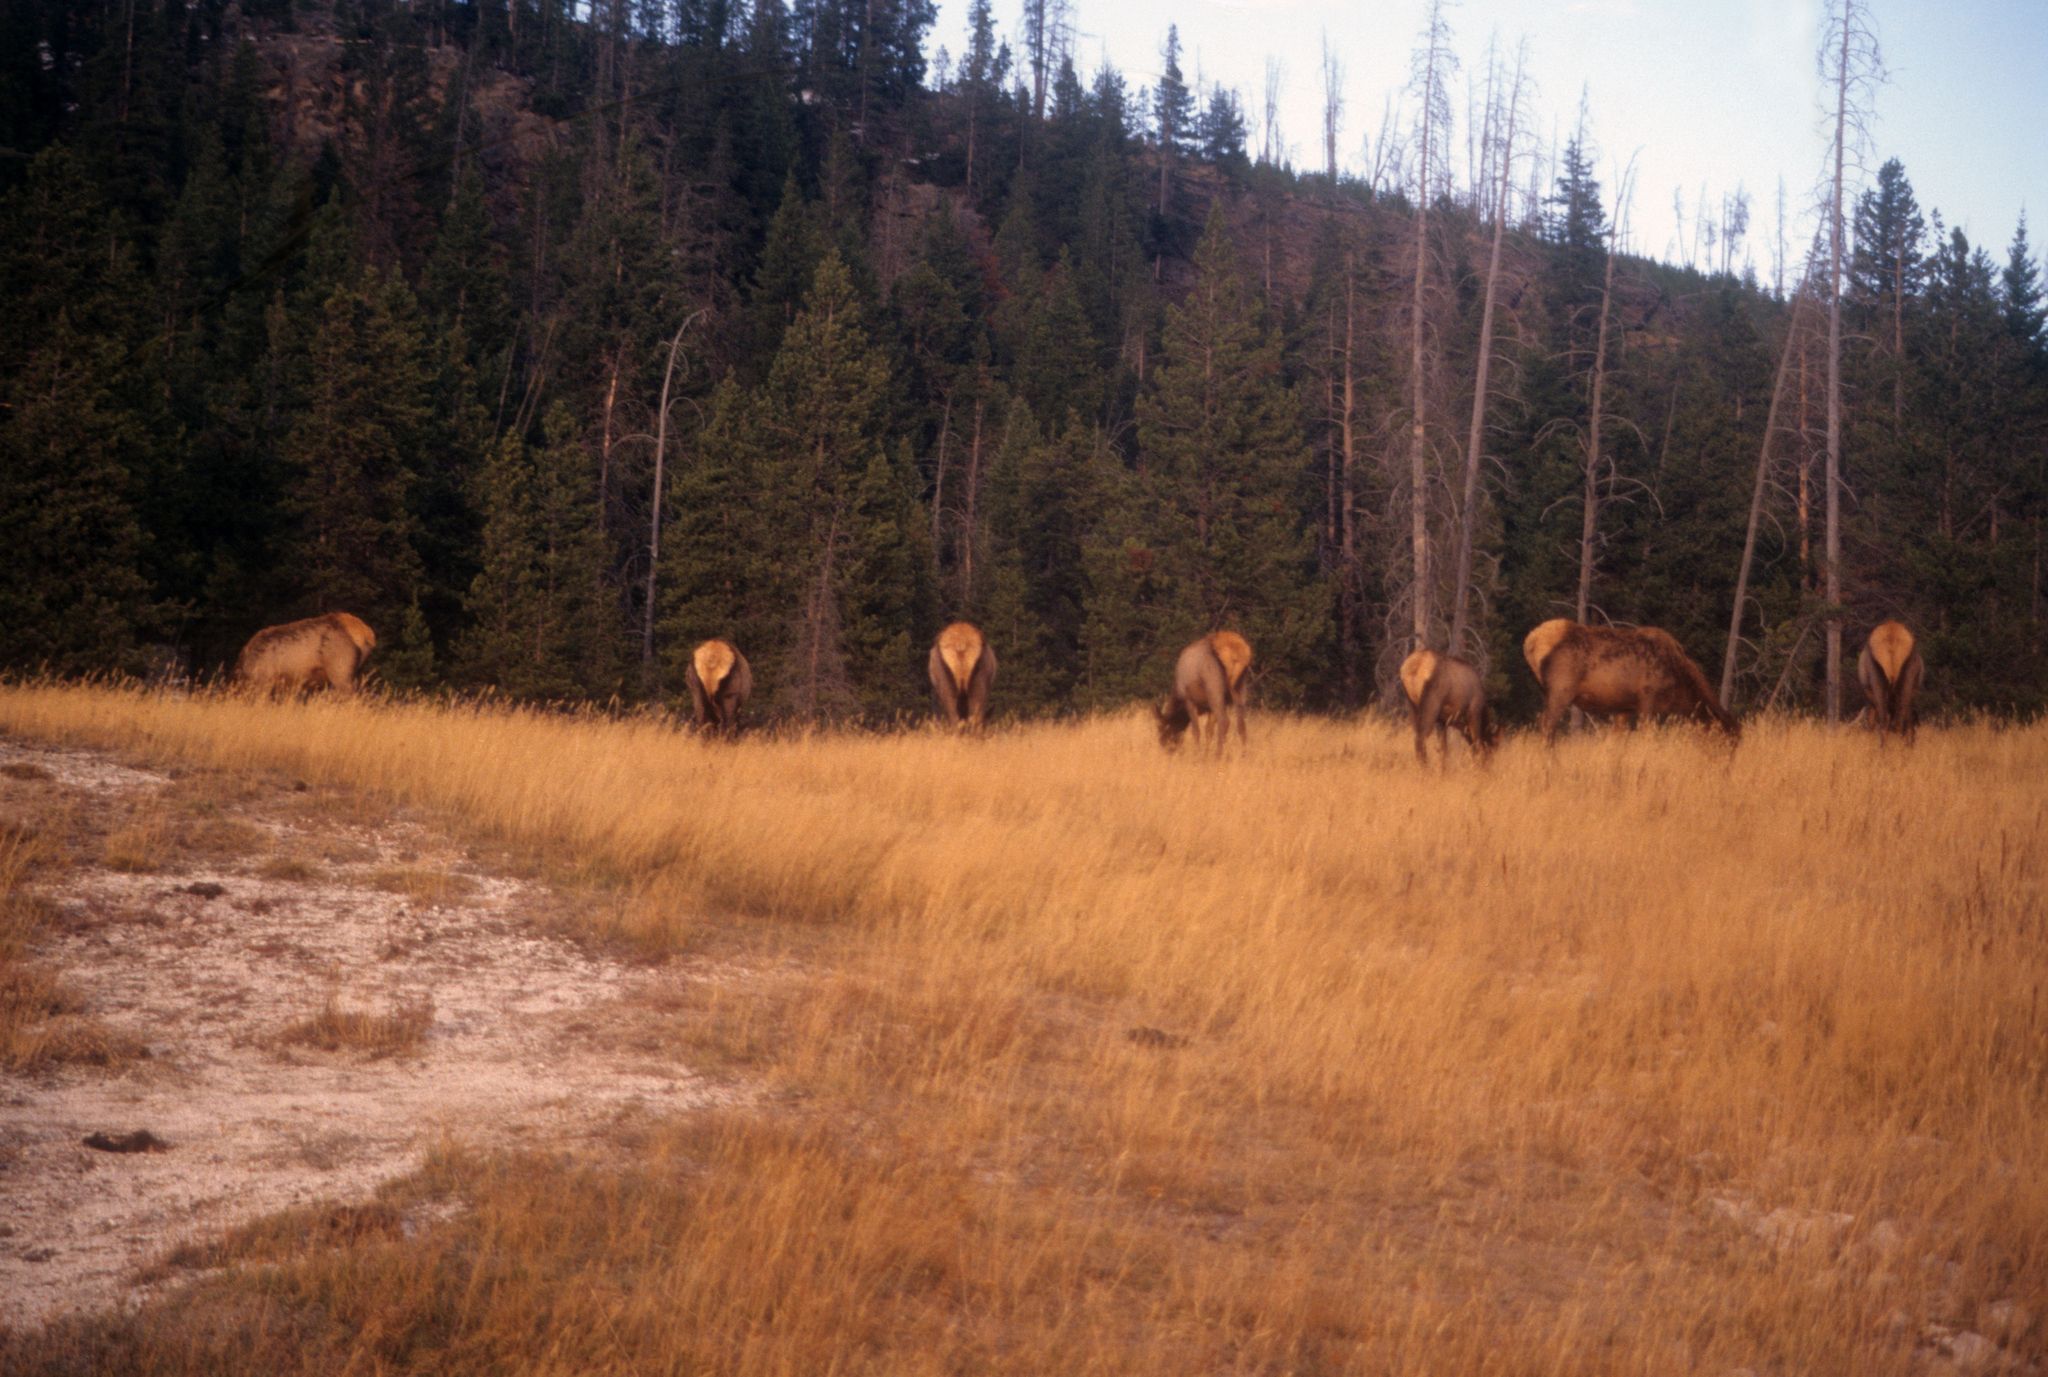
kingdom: Animalia
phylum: Chordata
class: Mammalia
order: Artiodactyla
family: Cervidae
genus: Cervus
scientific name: Cervus elaphus
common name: Red deer
